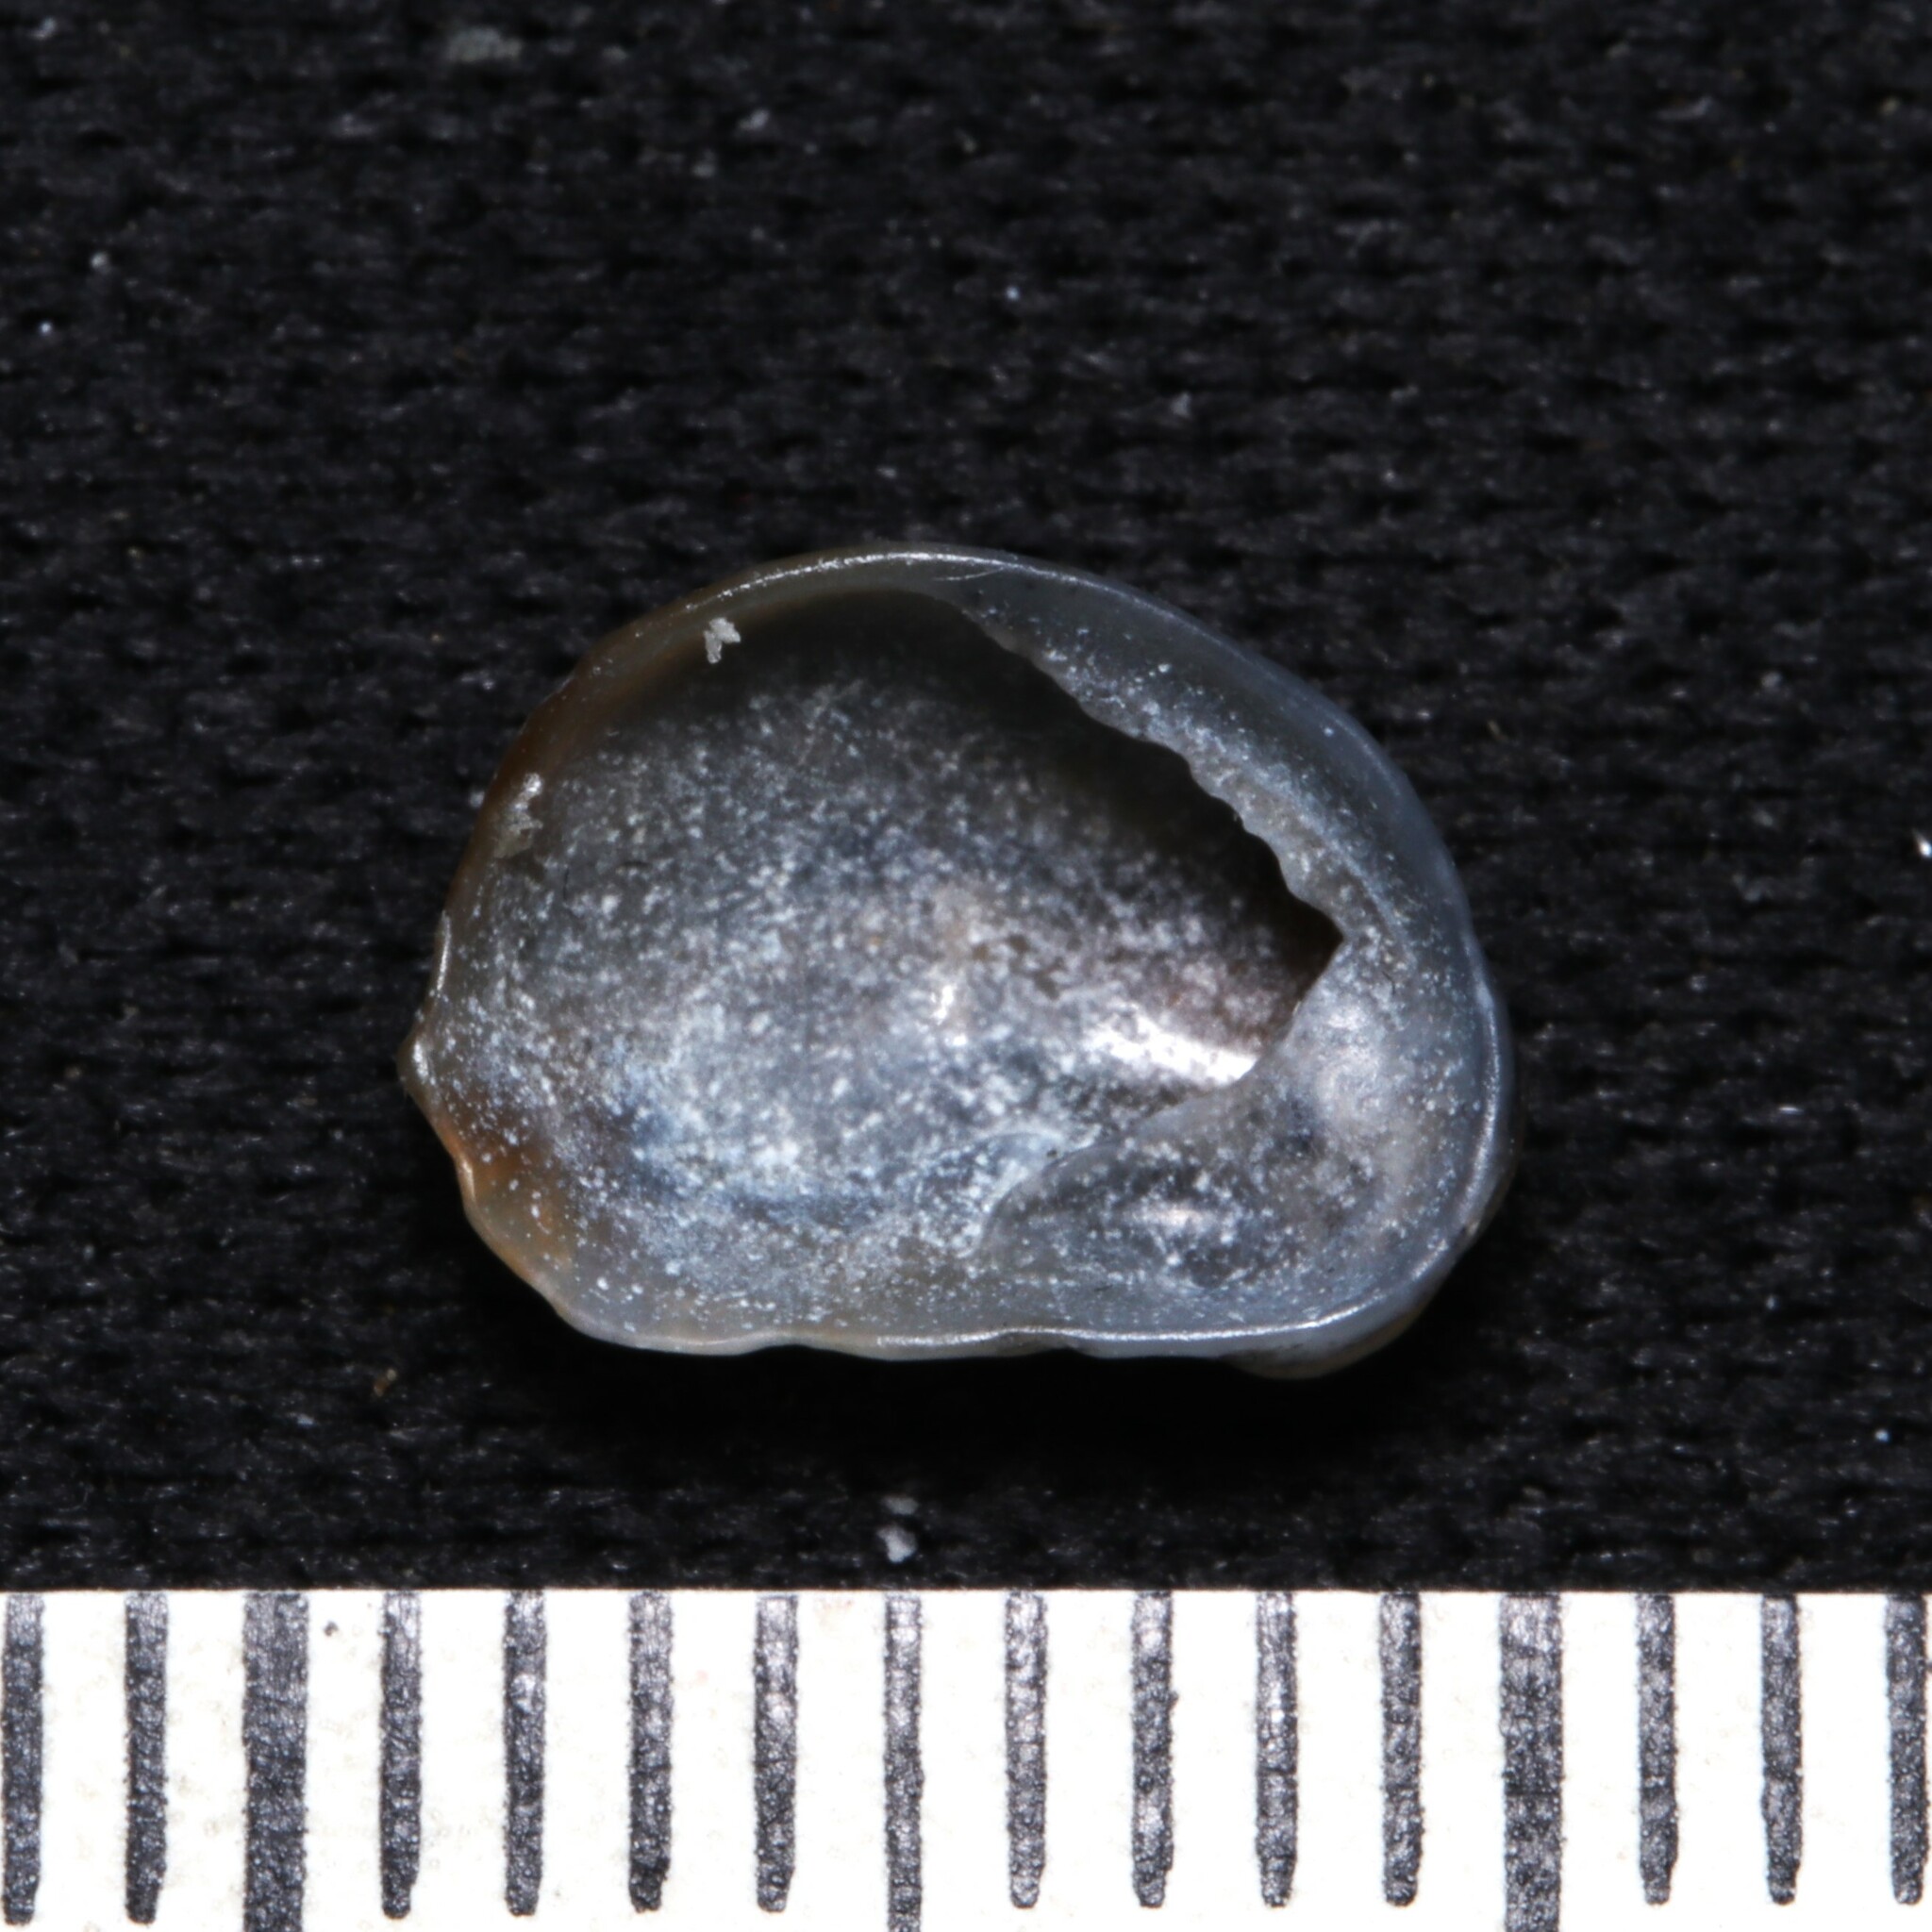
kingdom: Animalia
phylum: Mollusca
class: Gastropoda
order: Littorinimorpha
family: Calyptraeidae
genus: Bostrycapulus
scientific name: Bostrycapulus aculeatus
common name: Spiny slippersnail
